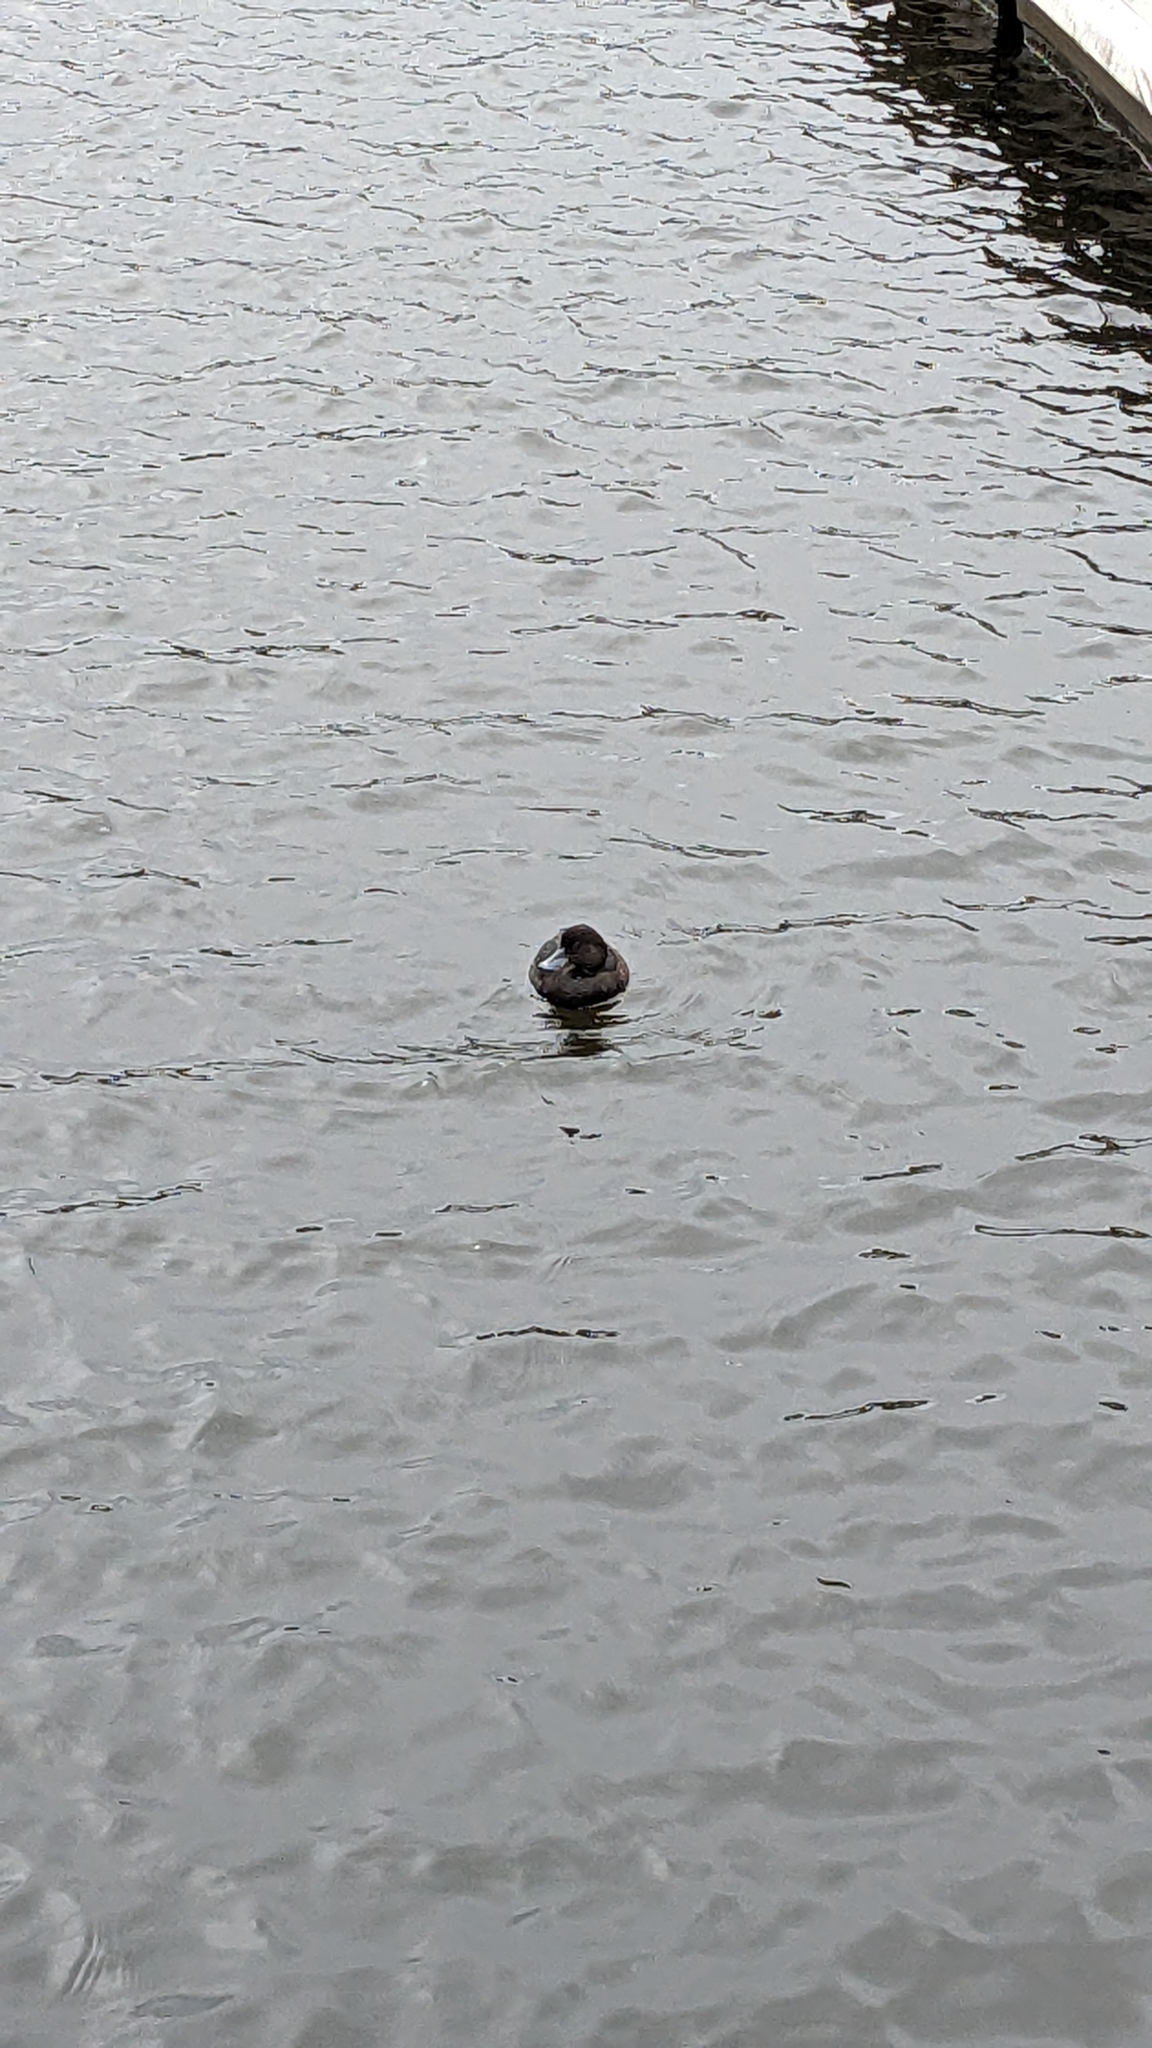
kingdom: Animalia
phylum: Chordata
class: Aves
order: Anseriformes
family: Anatidae
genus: Aythya
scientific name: Aythya novaeseelandiae
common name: New zealand scaup
